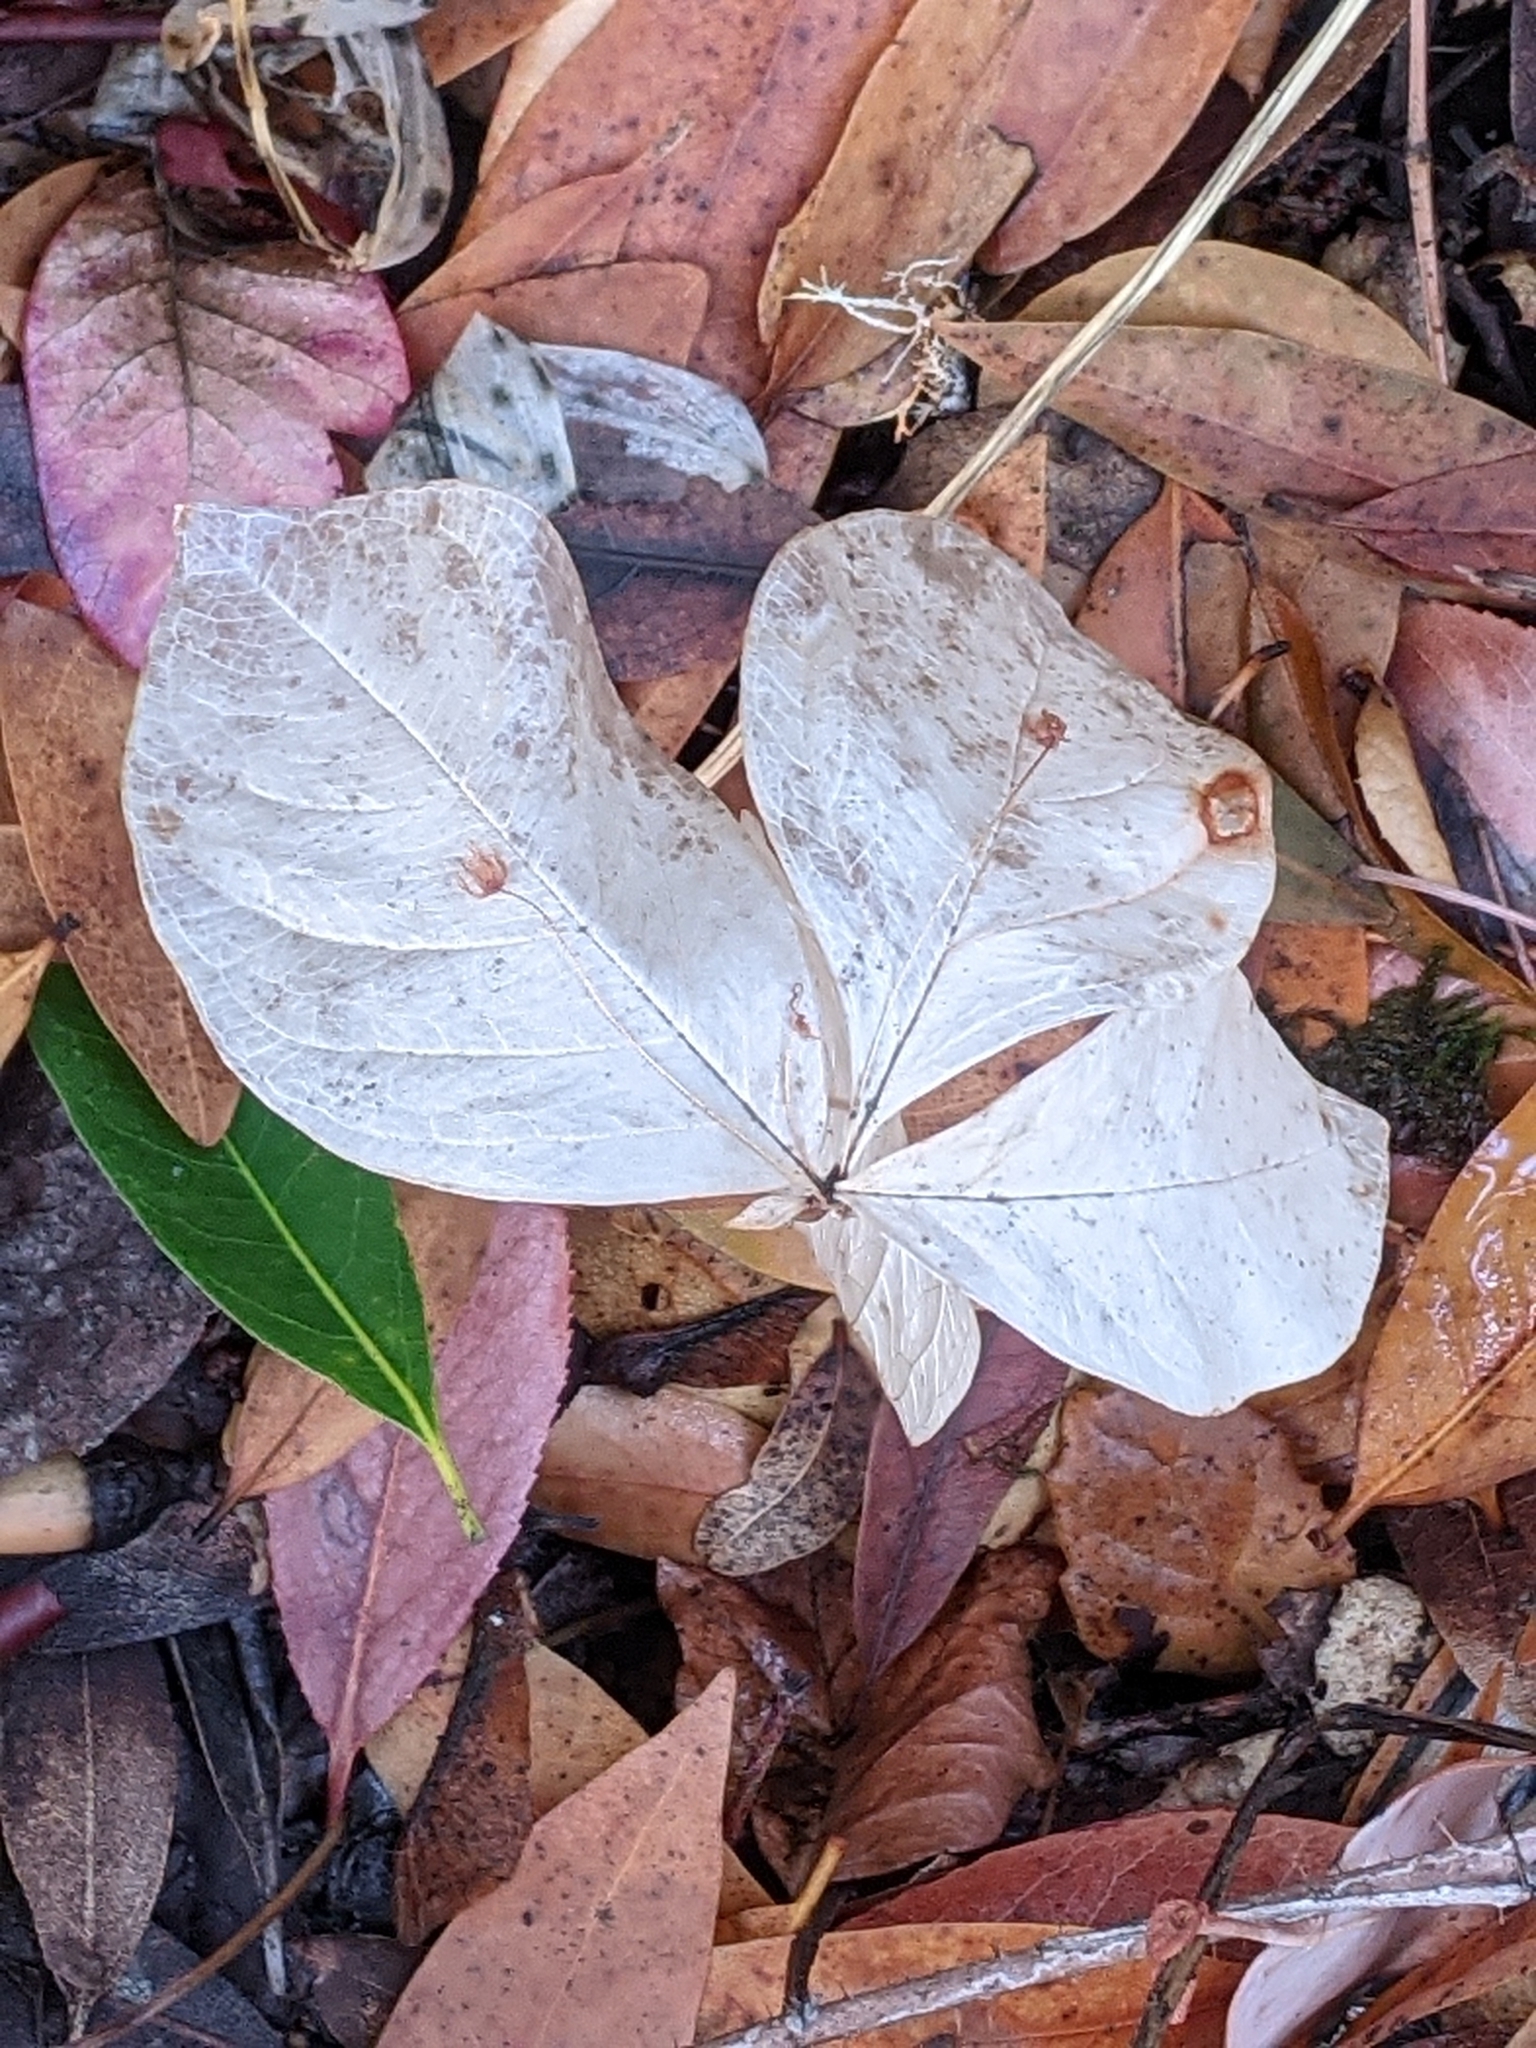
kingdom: Plantae
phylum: Tracheophyta
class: Magnoliopsida
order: Ericales
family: Primulaceae
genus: Lysimachia
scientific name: Lysimachia latifolia
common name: Pacific starflower
